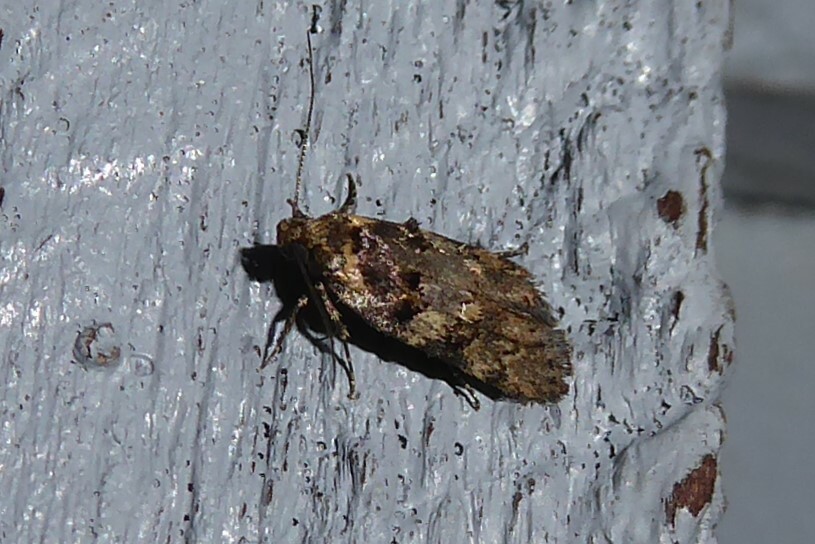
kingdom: Animalia
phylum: Arthropoda
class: Insecta
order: Lepidoptera
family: Oecophoridae
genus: Trachypepla
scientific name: Trachypepla anastrella
